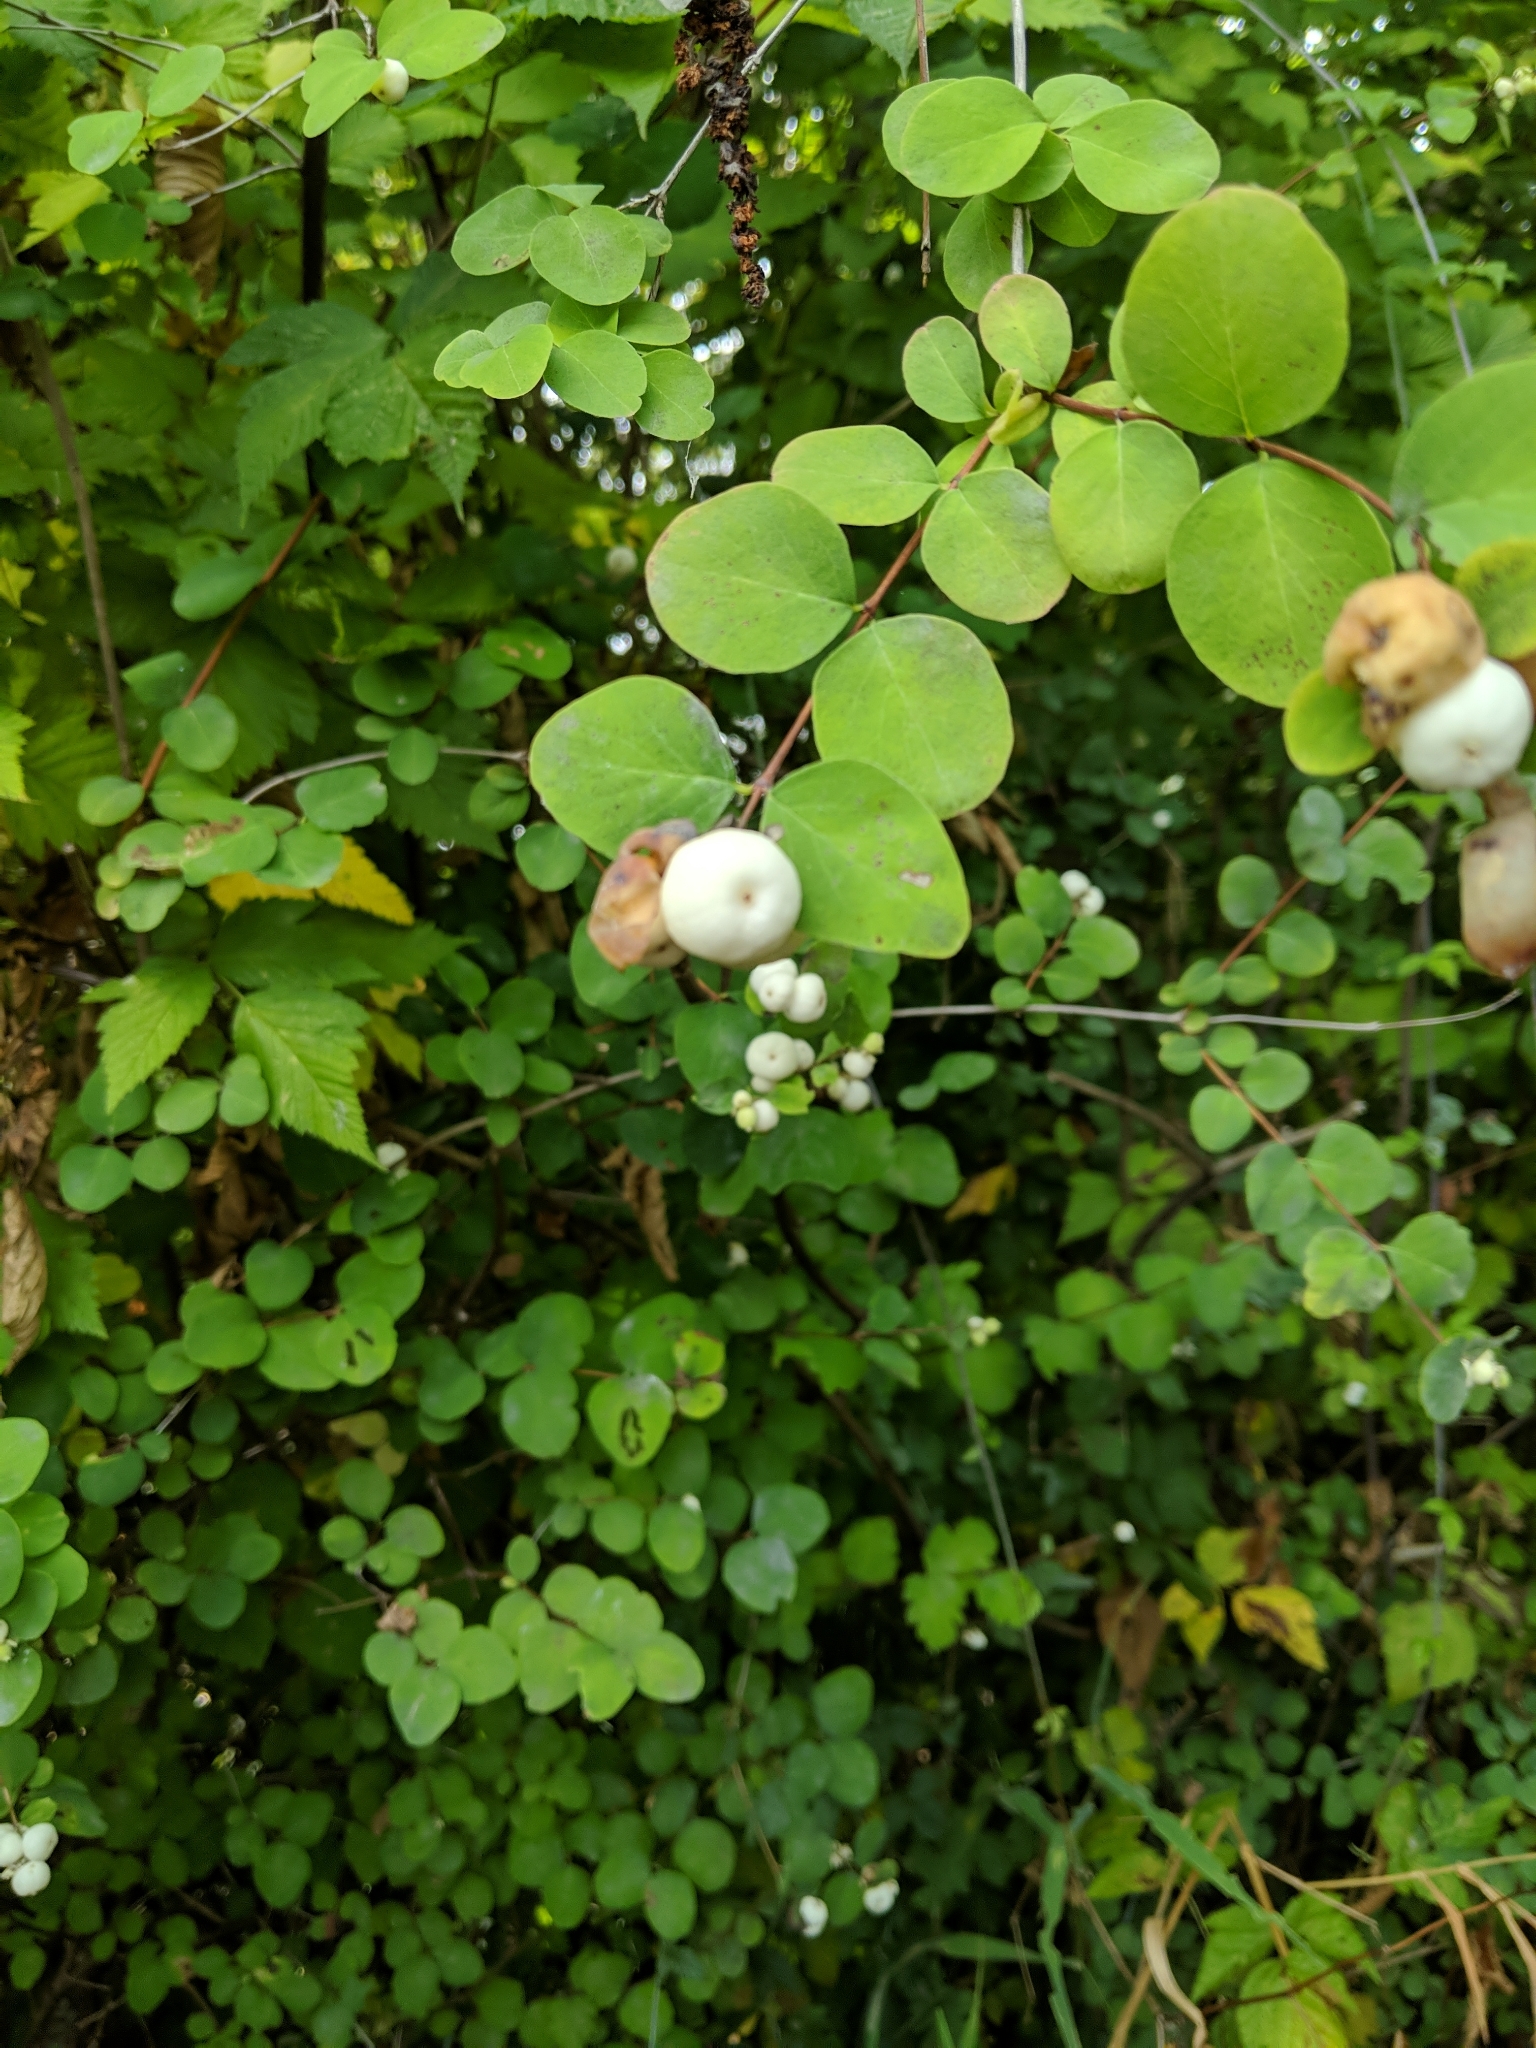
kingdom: Plantae
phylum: Tracheophyta
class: Magnoliopsida
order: Dipsacales
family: Caprifoliaceae
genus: Symphoricarpos
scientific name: Symphoricarpos albus
